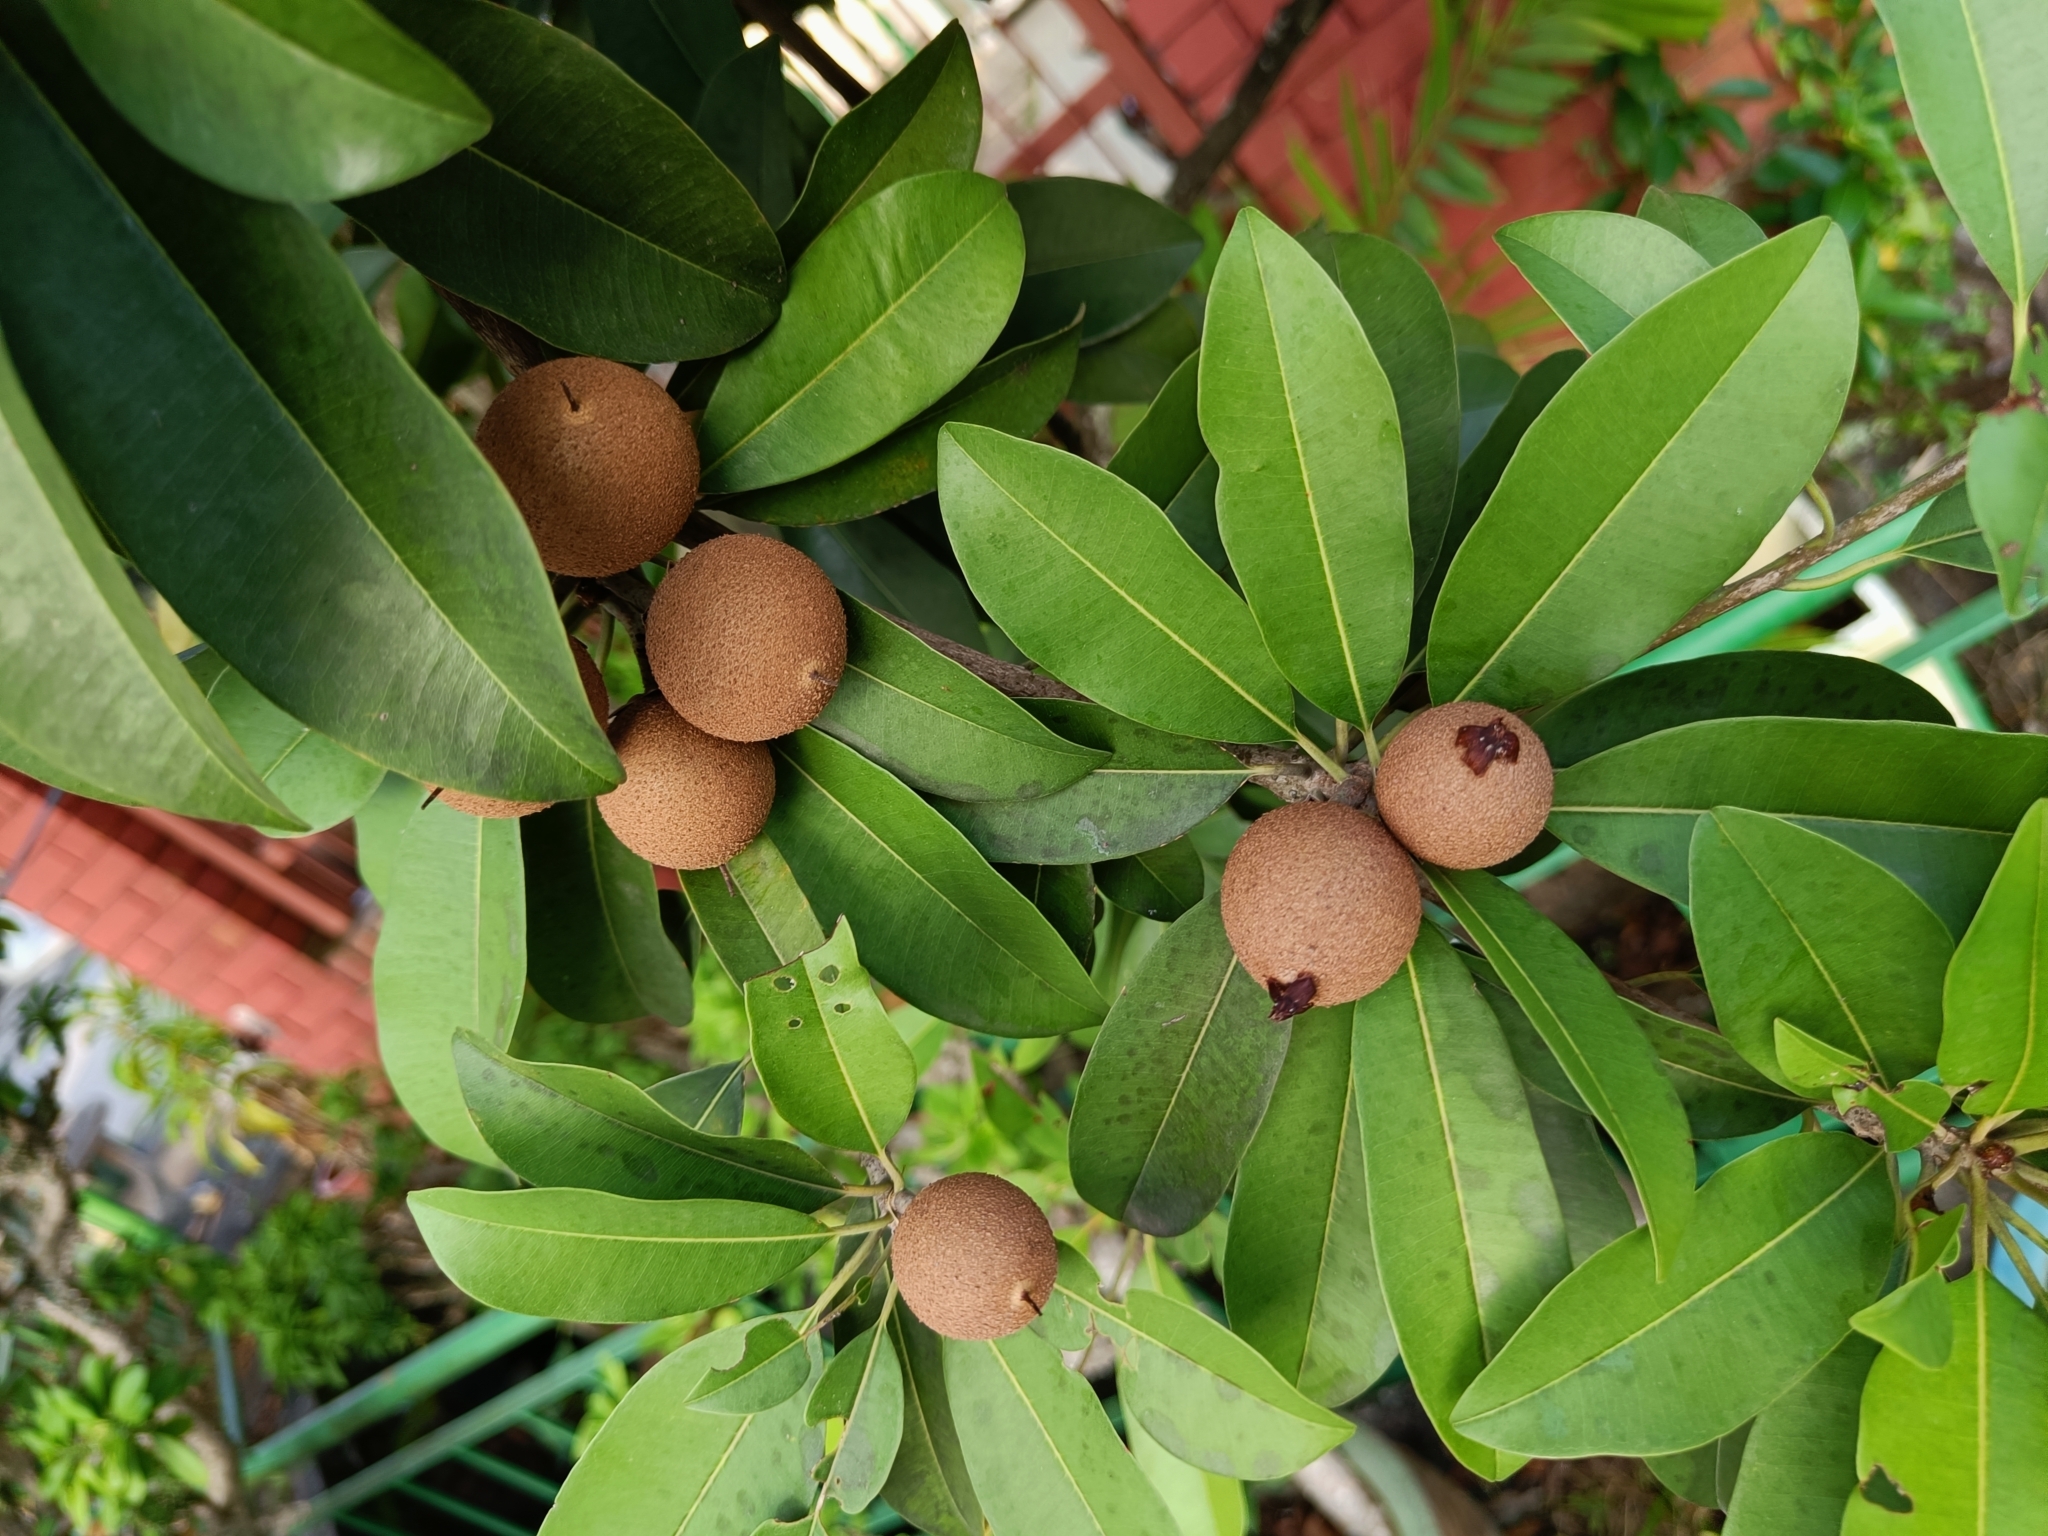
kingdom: Plantae
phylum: Tracheophyta
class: Magnoliopsida
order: Ericales
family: Sapotaceae
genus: Manilkara
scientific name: Manilkara zapota
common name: Sapodilla
